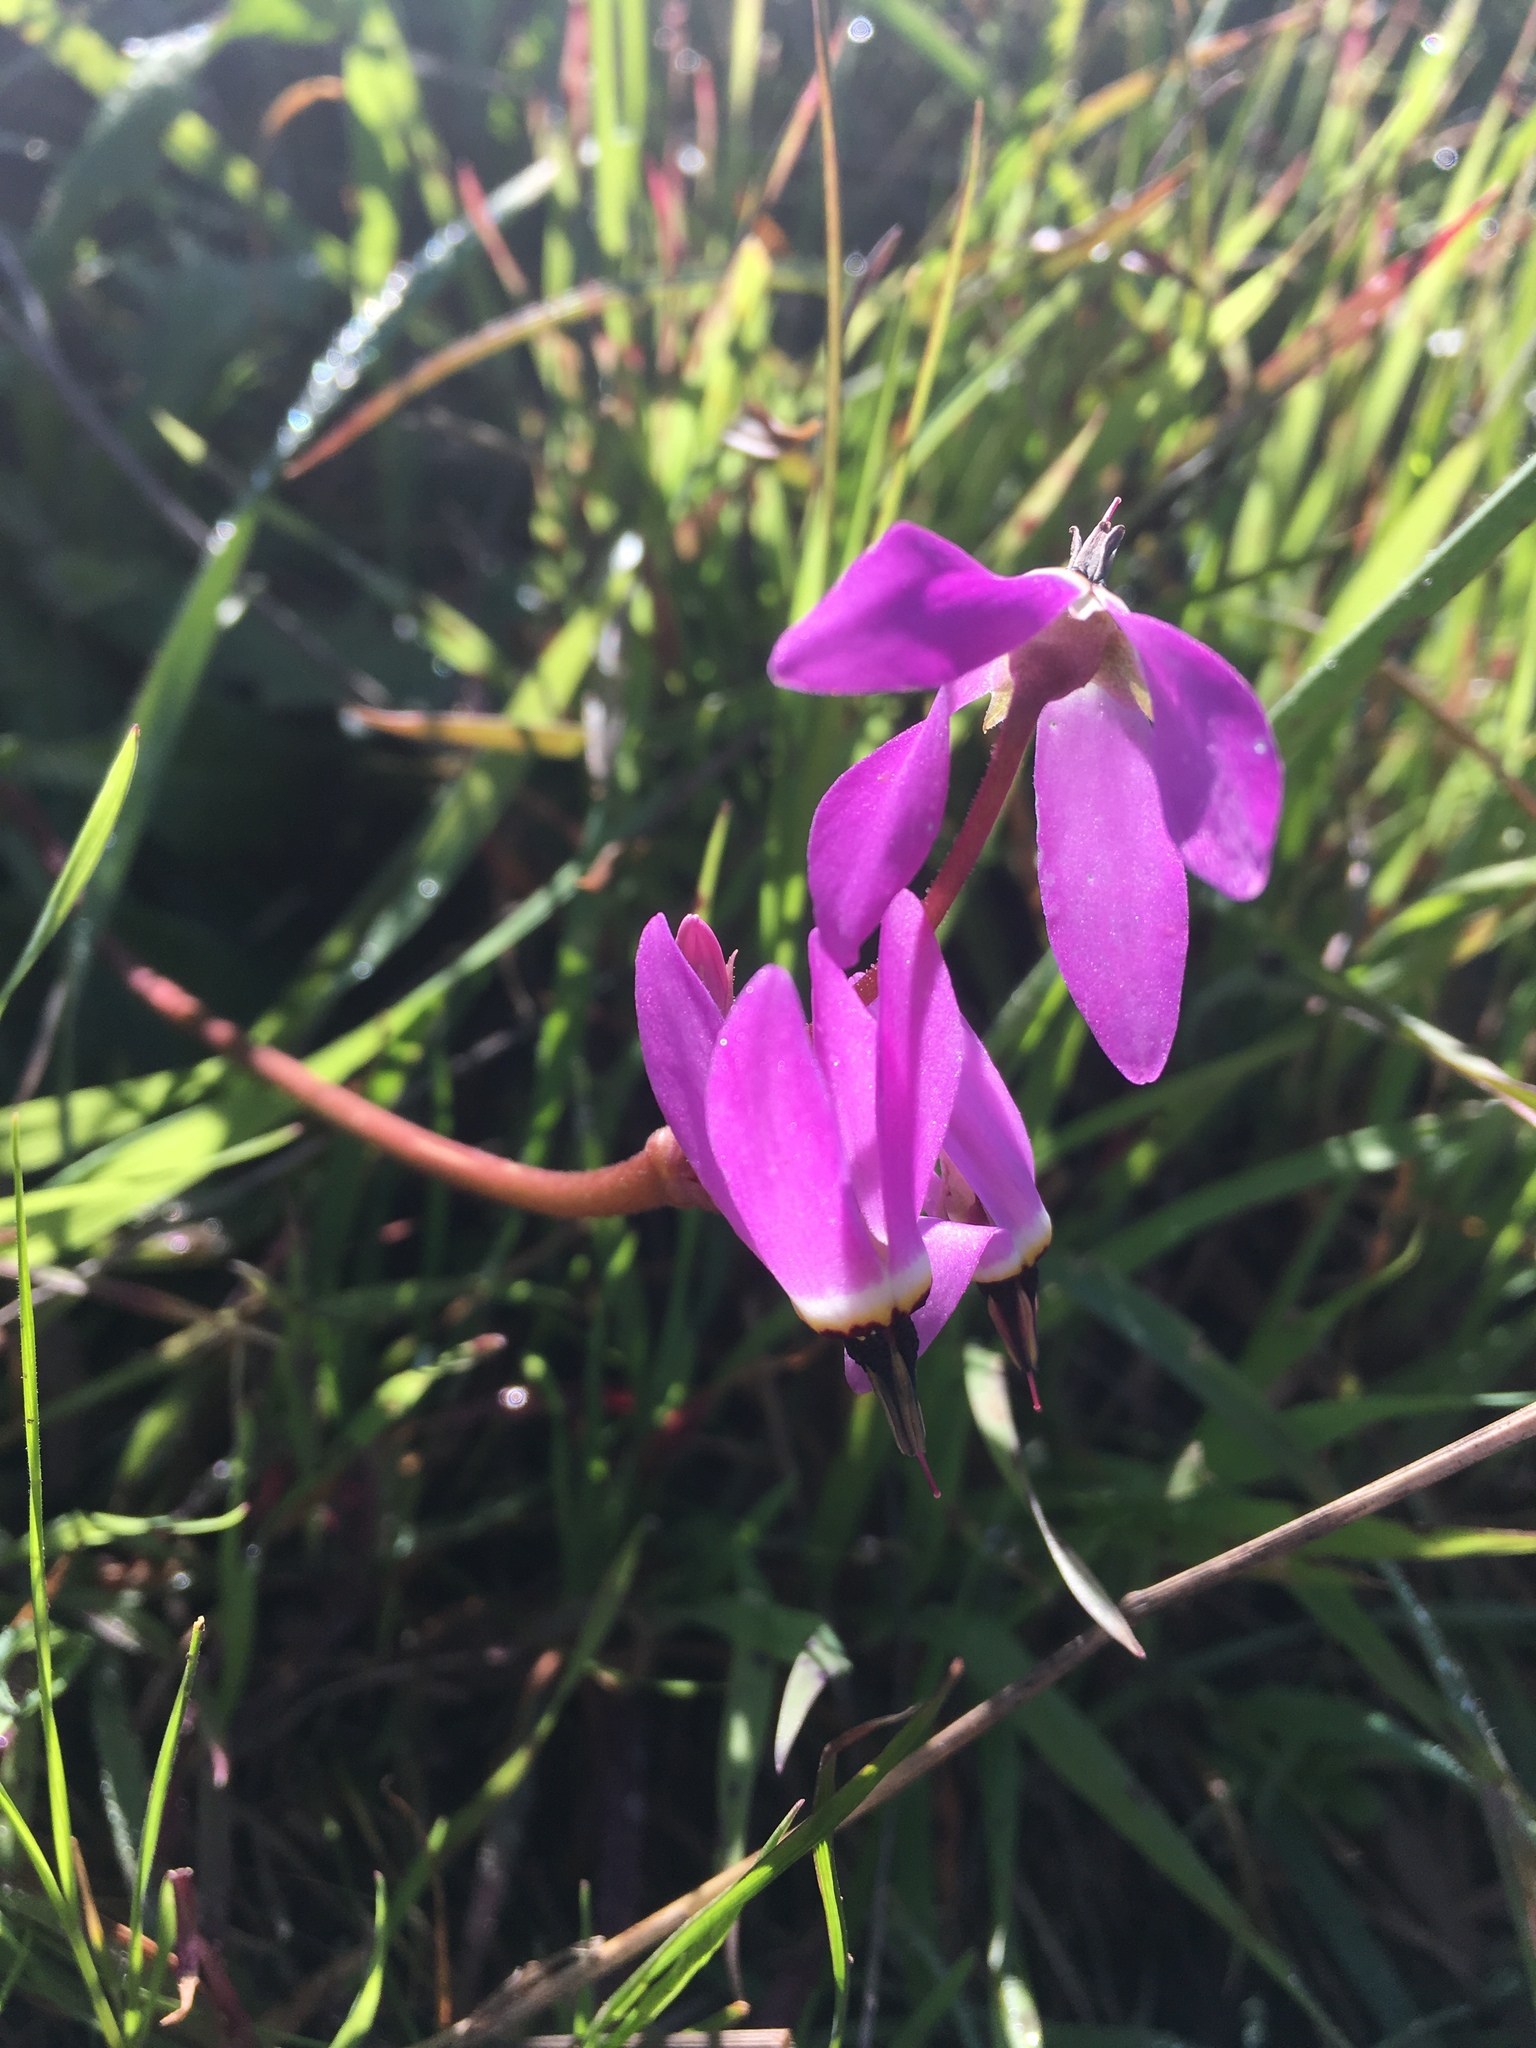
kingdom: Plantae
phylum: Tracheophyta
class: Magnoliopsida
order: Ericales
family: Primulaceae
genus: Dodecatheon
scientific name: Dodecatheon hendersonii
